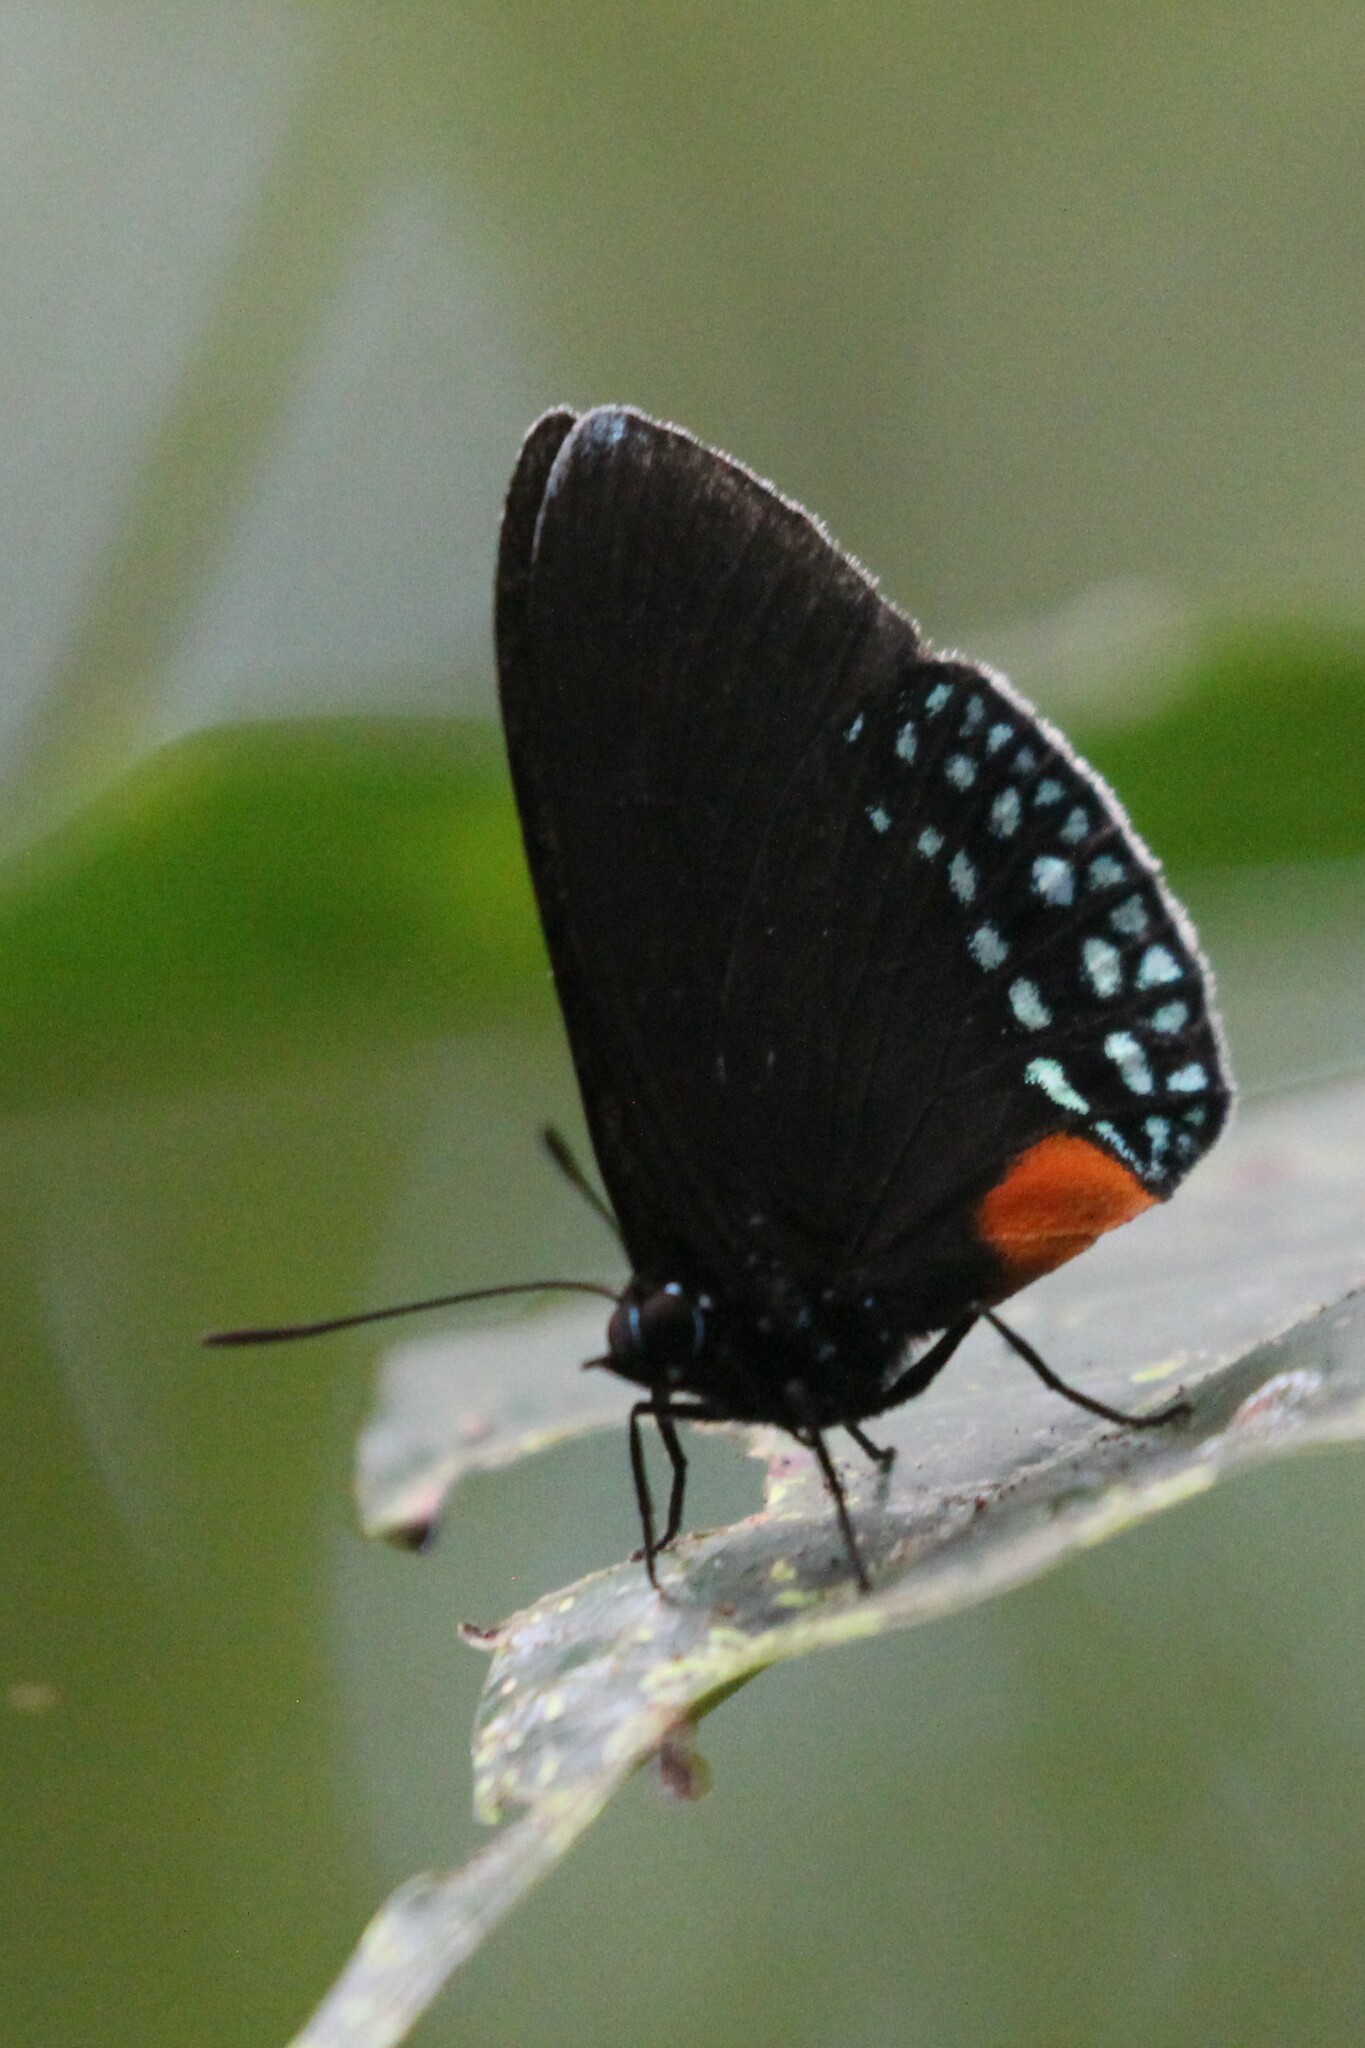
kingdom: Animalia
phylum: Arthropoda
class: Insecta
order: Lepidoptera
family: Lycaenidae
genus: Eumaeus
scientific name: Eumaeus godartii
